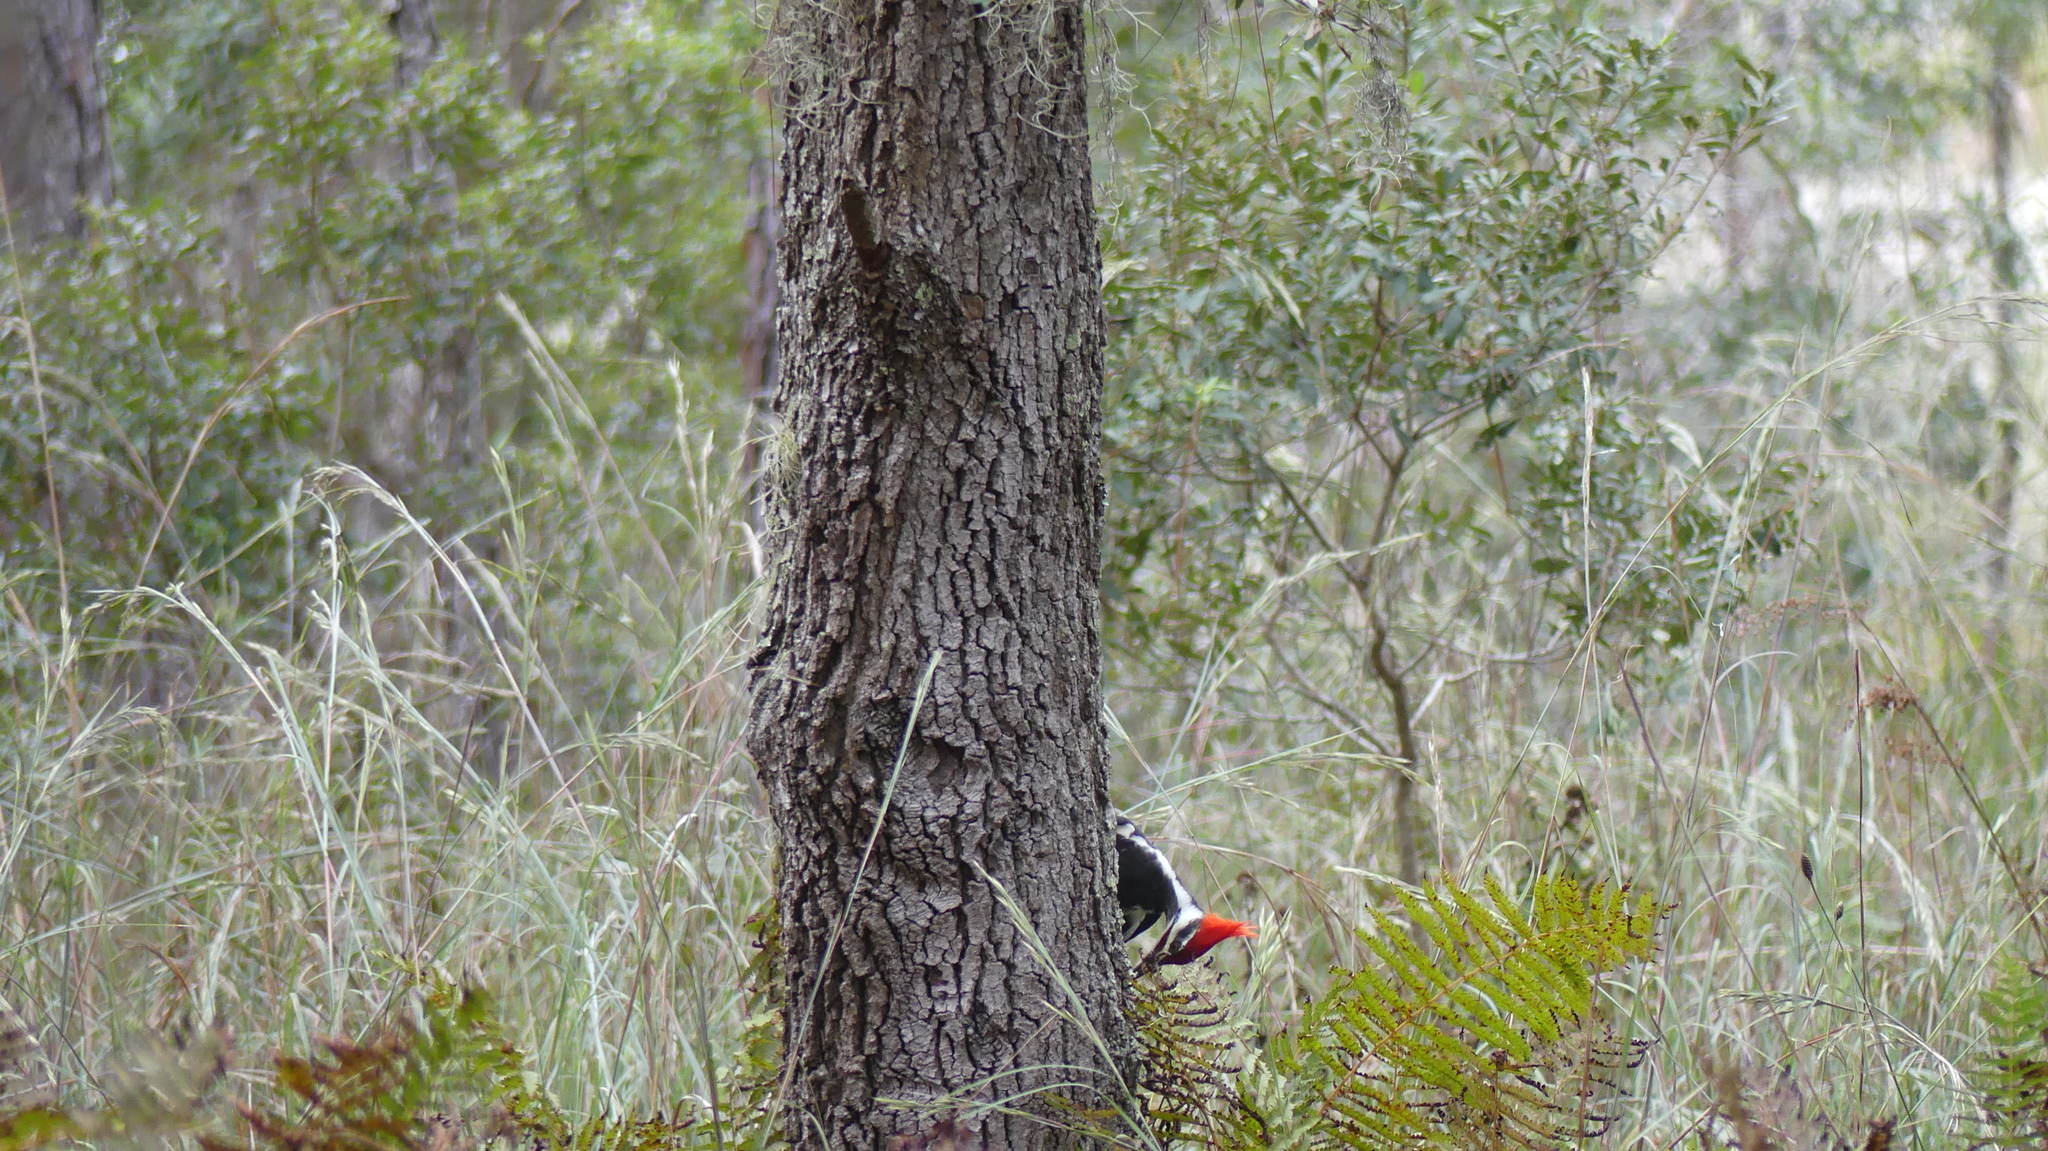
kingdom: Animalia
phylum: Chordata
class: Aves
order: Piciformes
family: Picidae
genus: Dryocopus
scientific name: Dryocopus pileatus
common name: Pileated woodpecker
